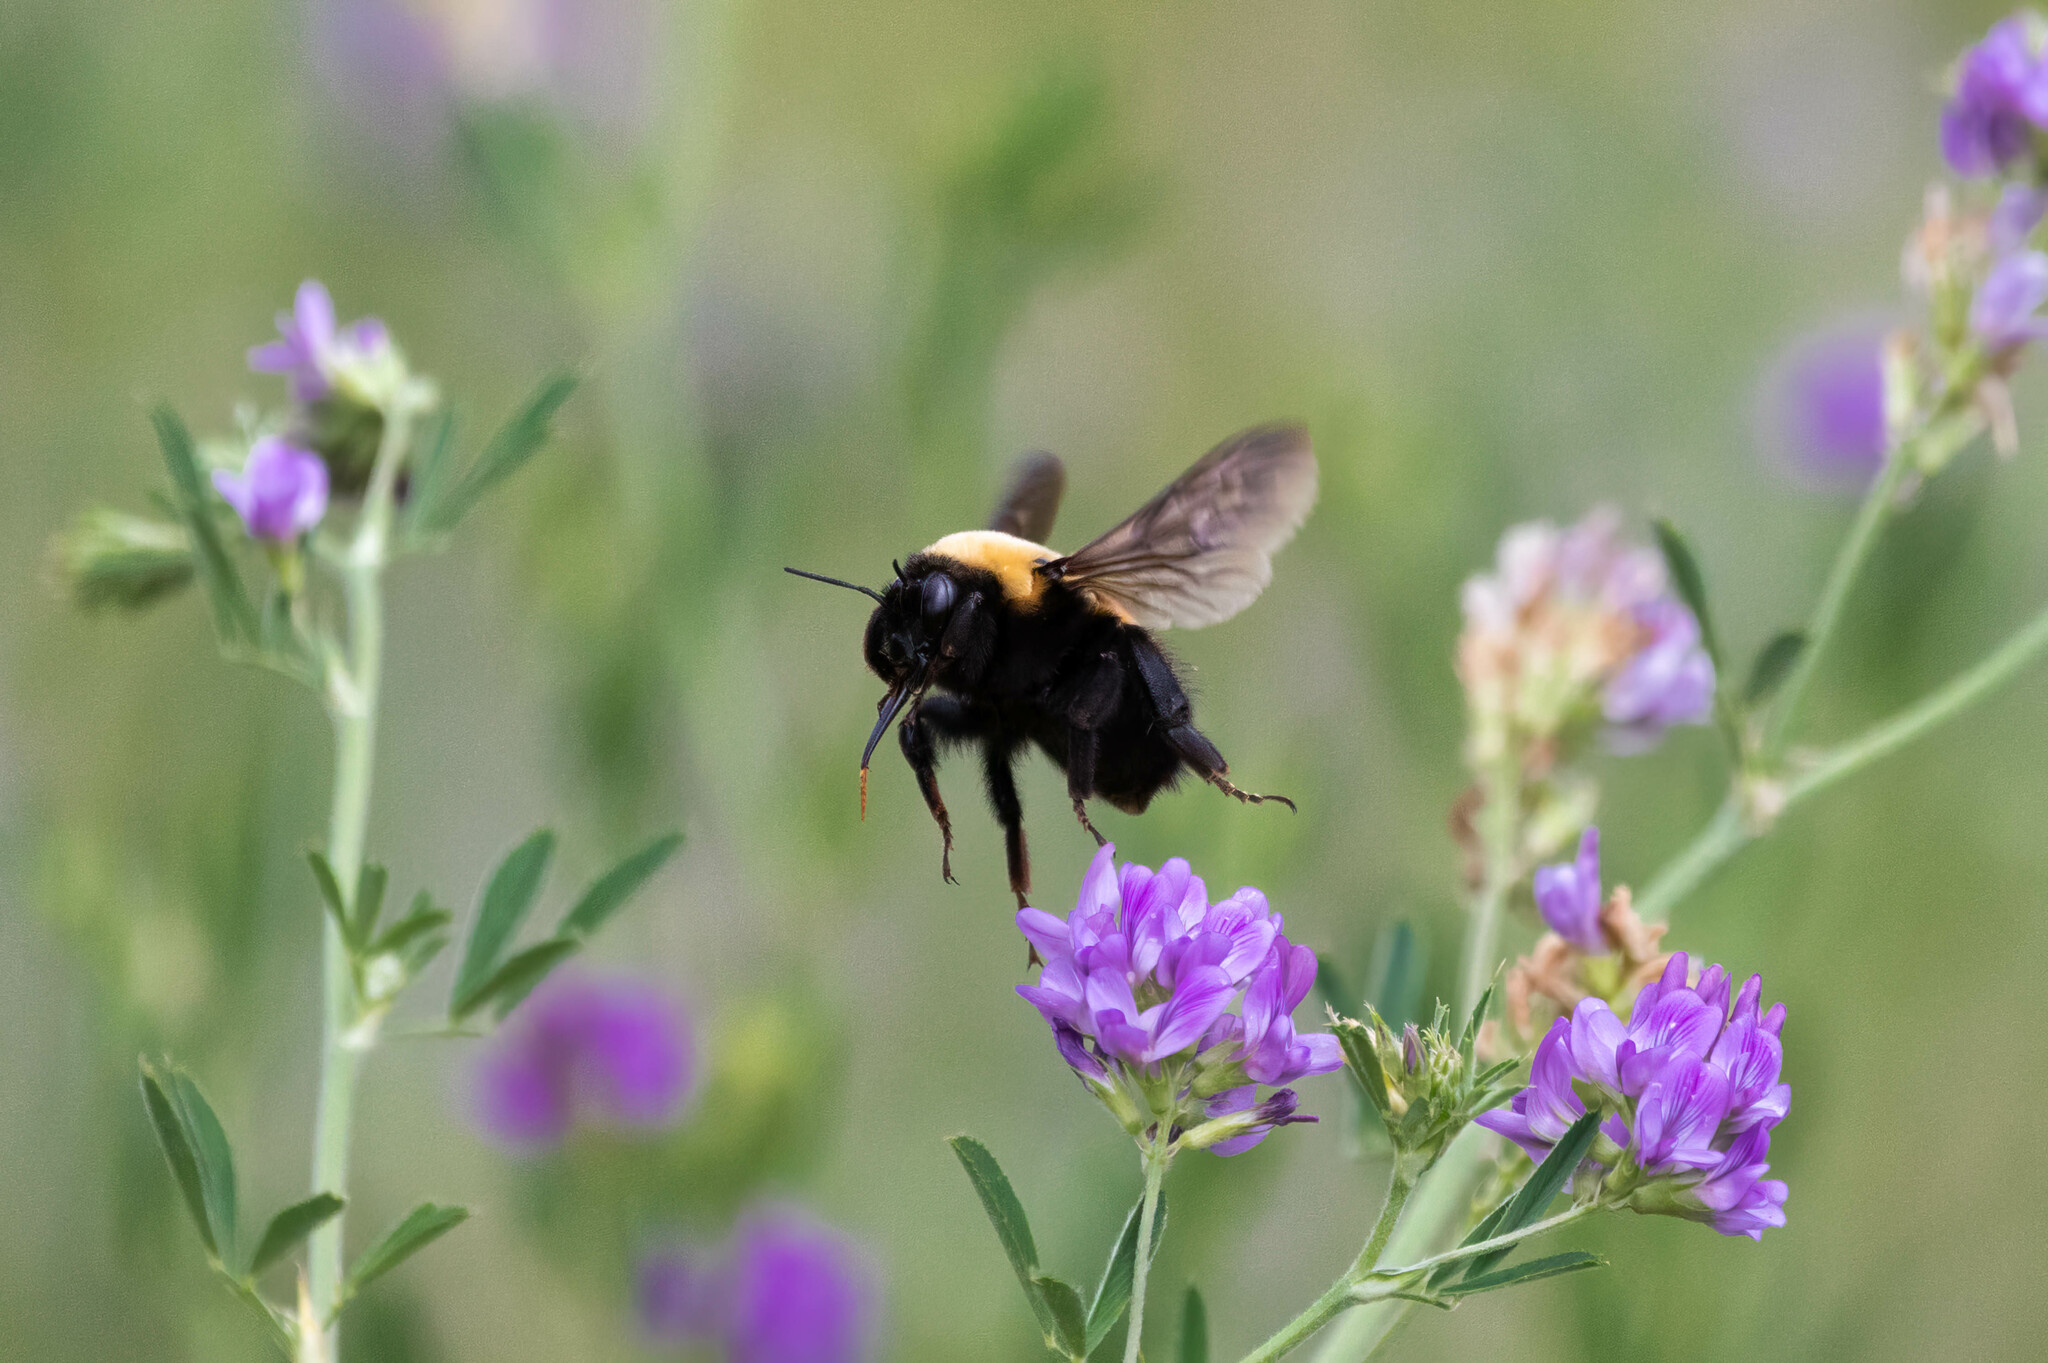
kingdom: Animalia
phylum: Arthropoda
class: Insecta
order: Hymenoptera
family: Apidae
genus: Bombus
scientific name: Bombus nevadensis
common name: Nevada bumble bee
